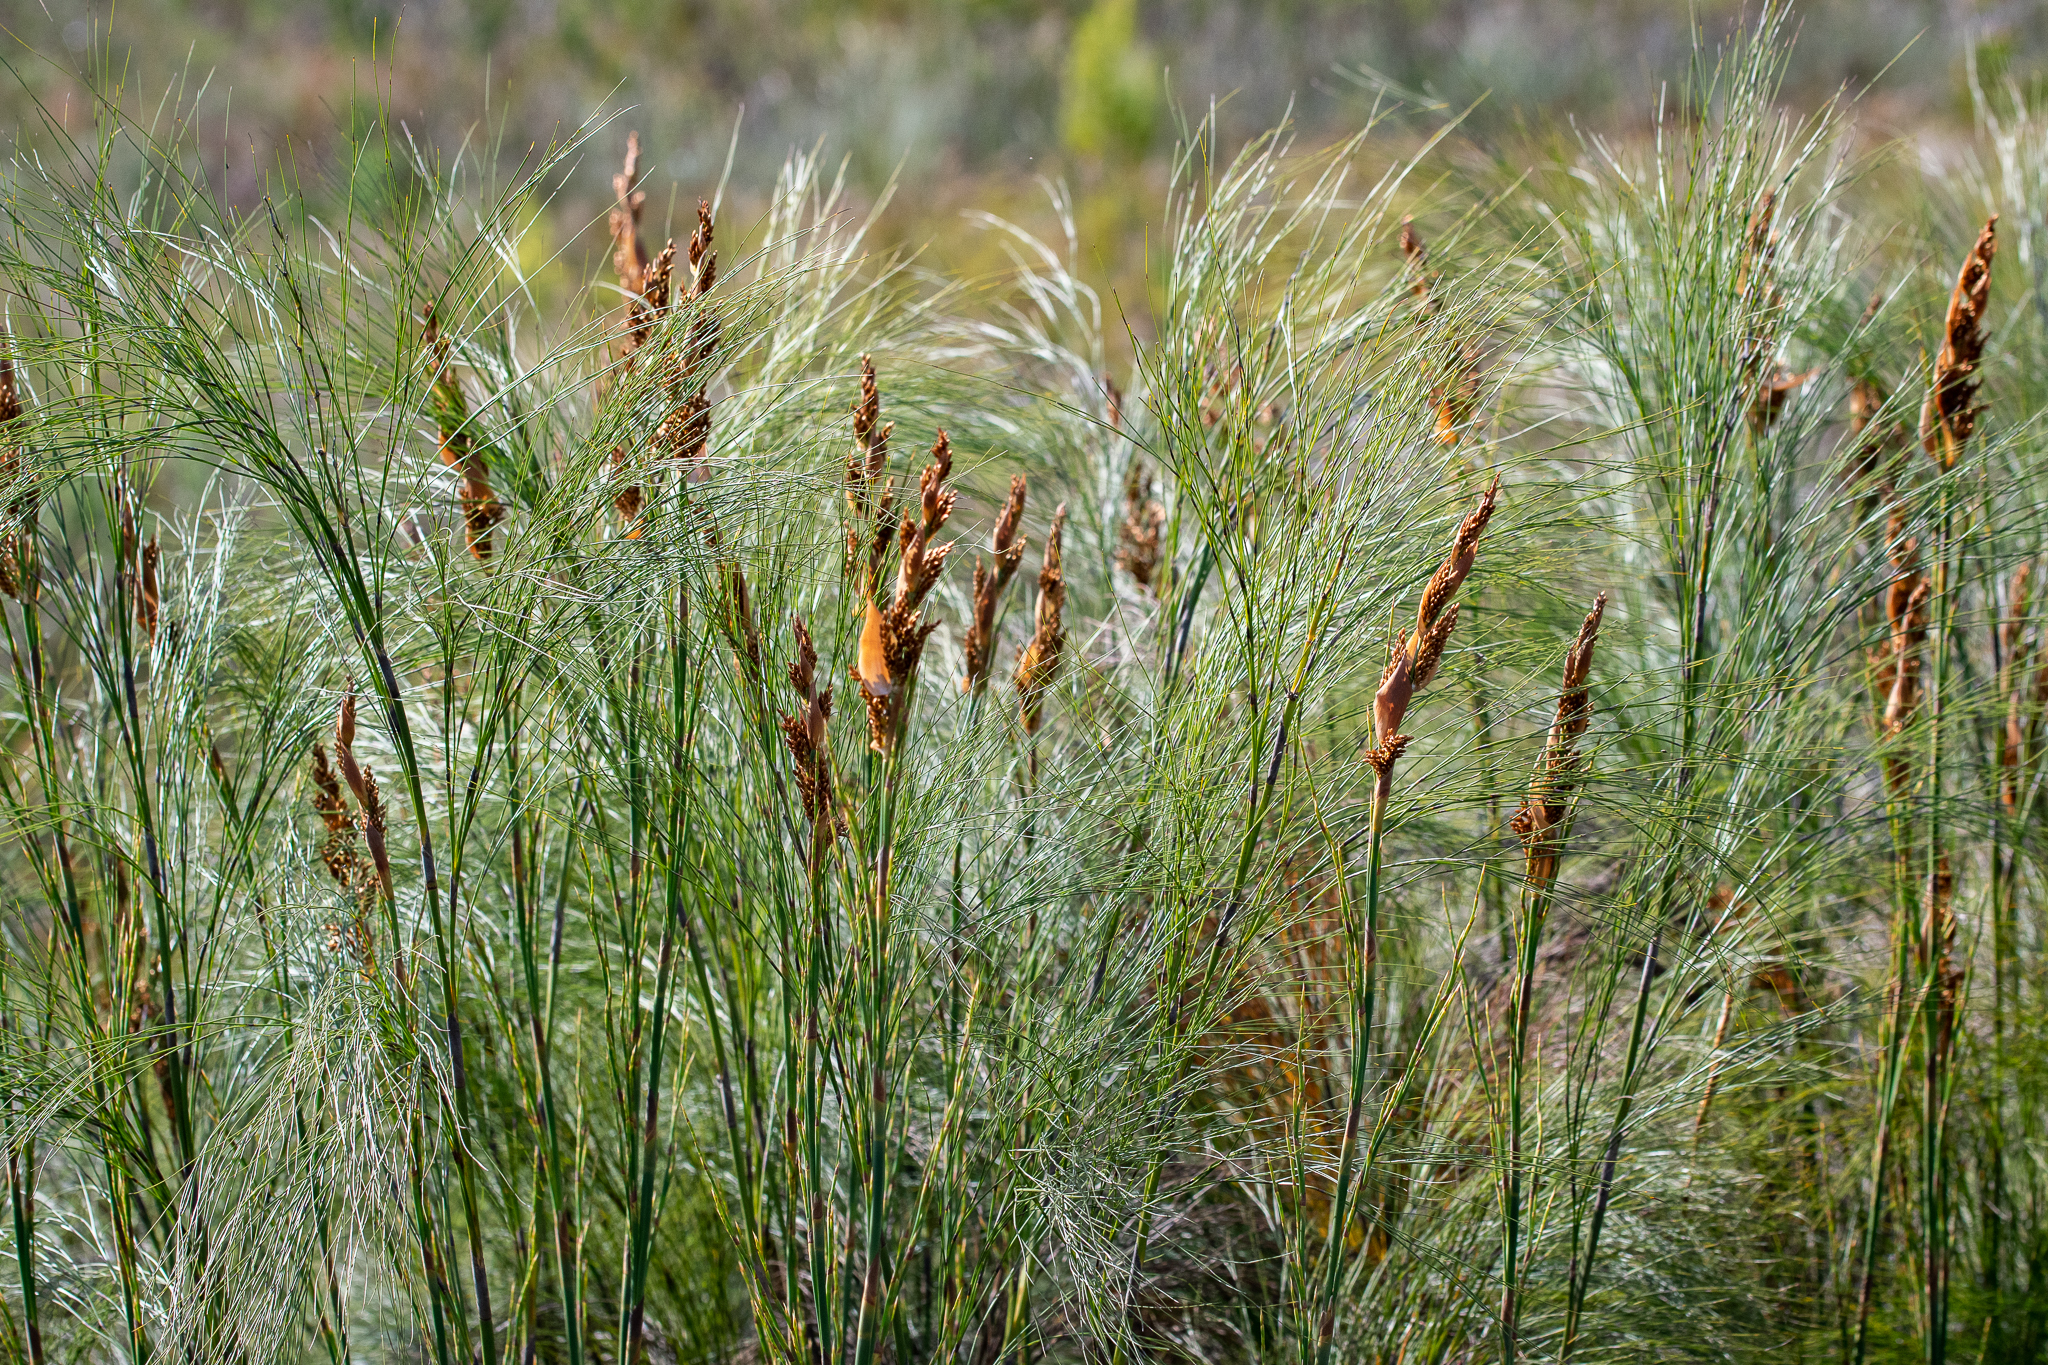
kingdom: Plantae
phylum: Tracheophyta
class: Liliopsida
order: Poales
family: Restionaceae
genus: Elegia
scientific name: Elegia capensis
